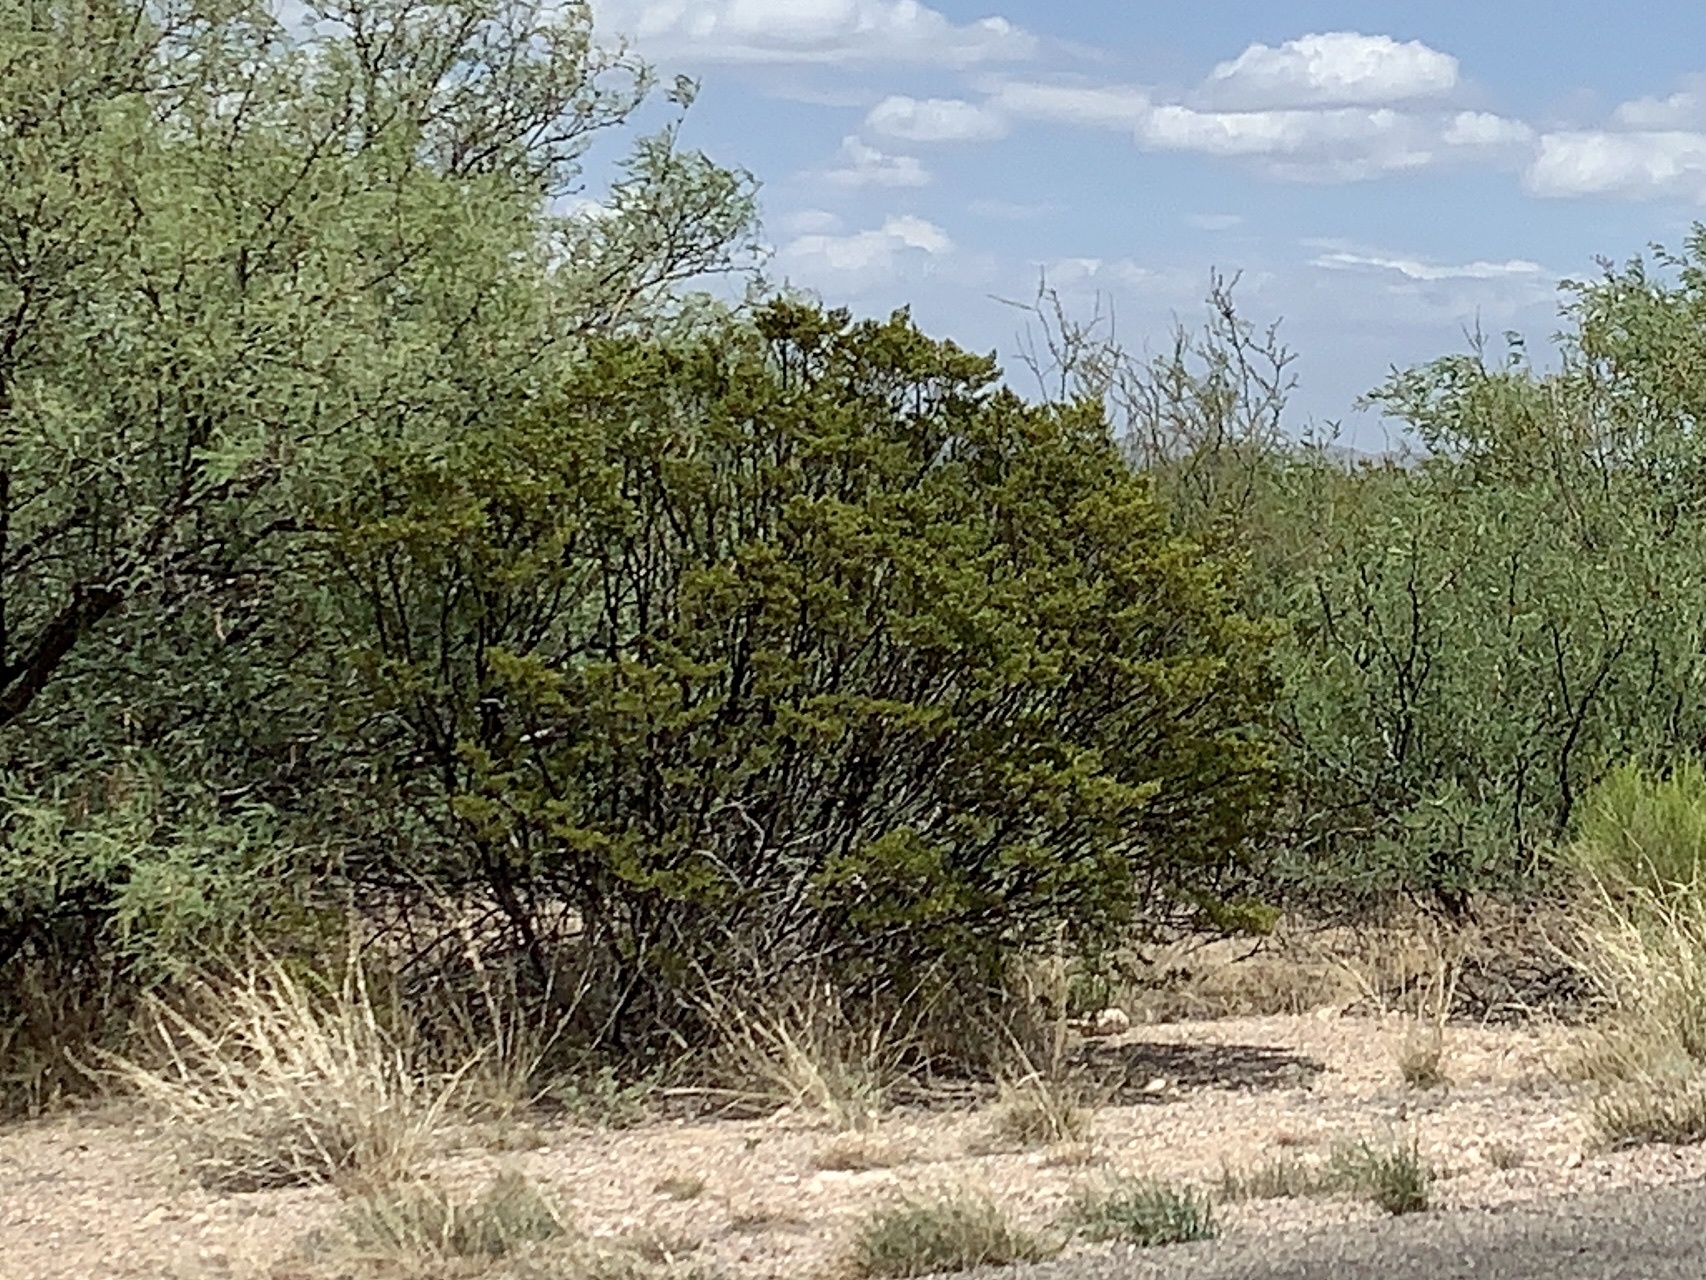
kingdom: Plantae
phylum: Tracheophyta
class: Magnoliopsida
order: Zygophyllales
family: Zygophyllaceae
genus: Larrea
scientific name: Larrea tridentata
